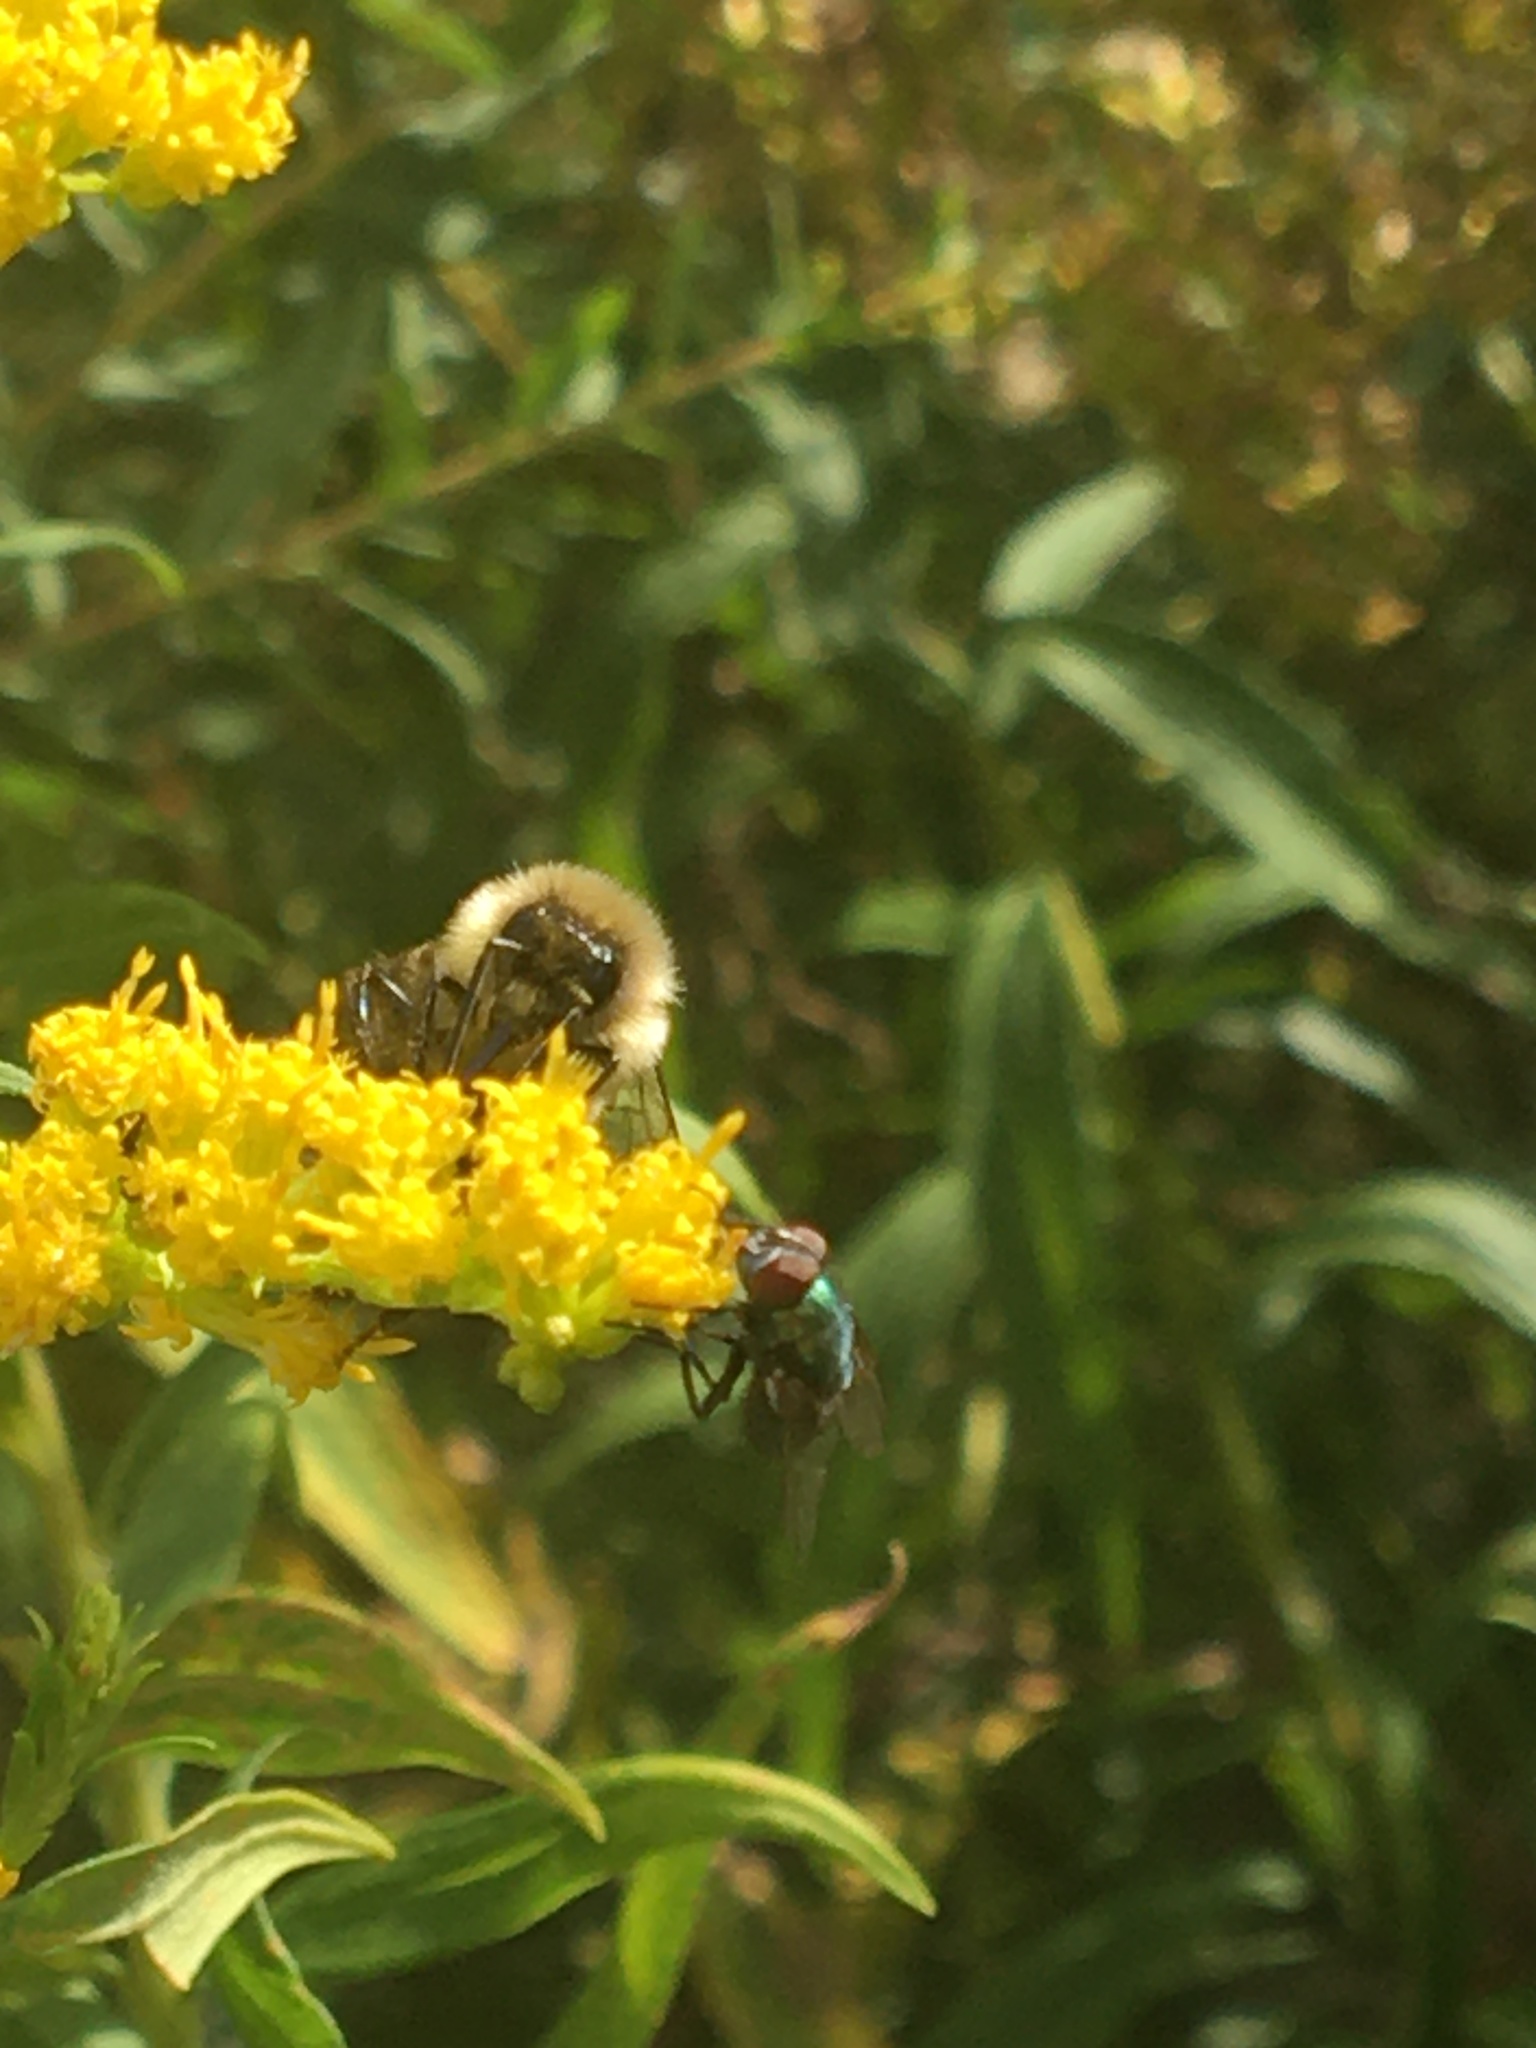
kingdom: Animalia
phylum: Arthropoda
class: Insecta
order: Hymenoptera
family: Apidae
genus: Bombus
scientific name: Bombus impatiens
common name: Common eastern bumble bee
